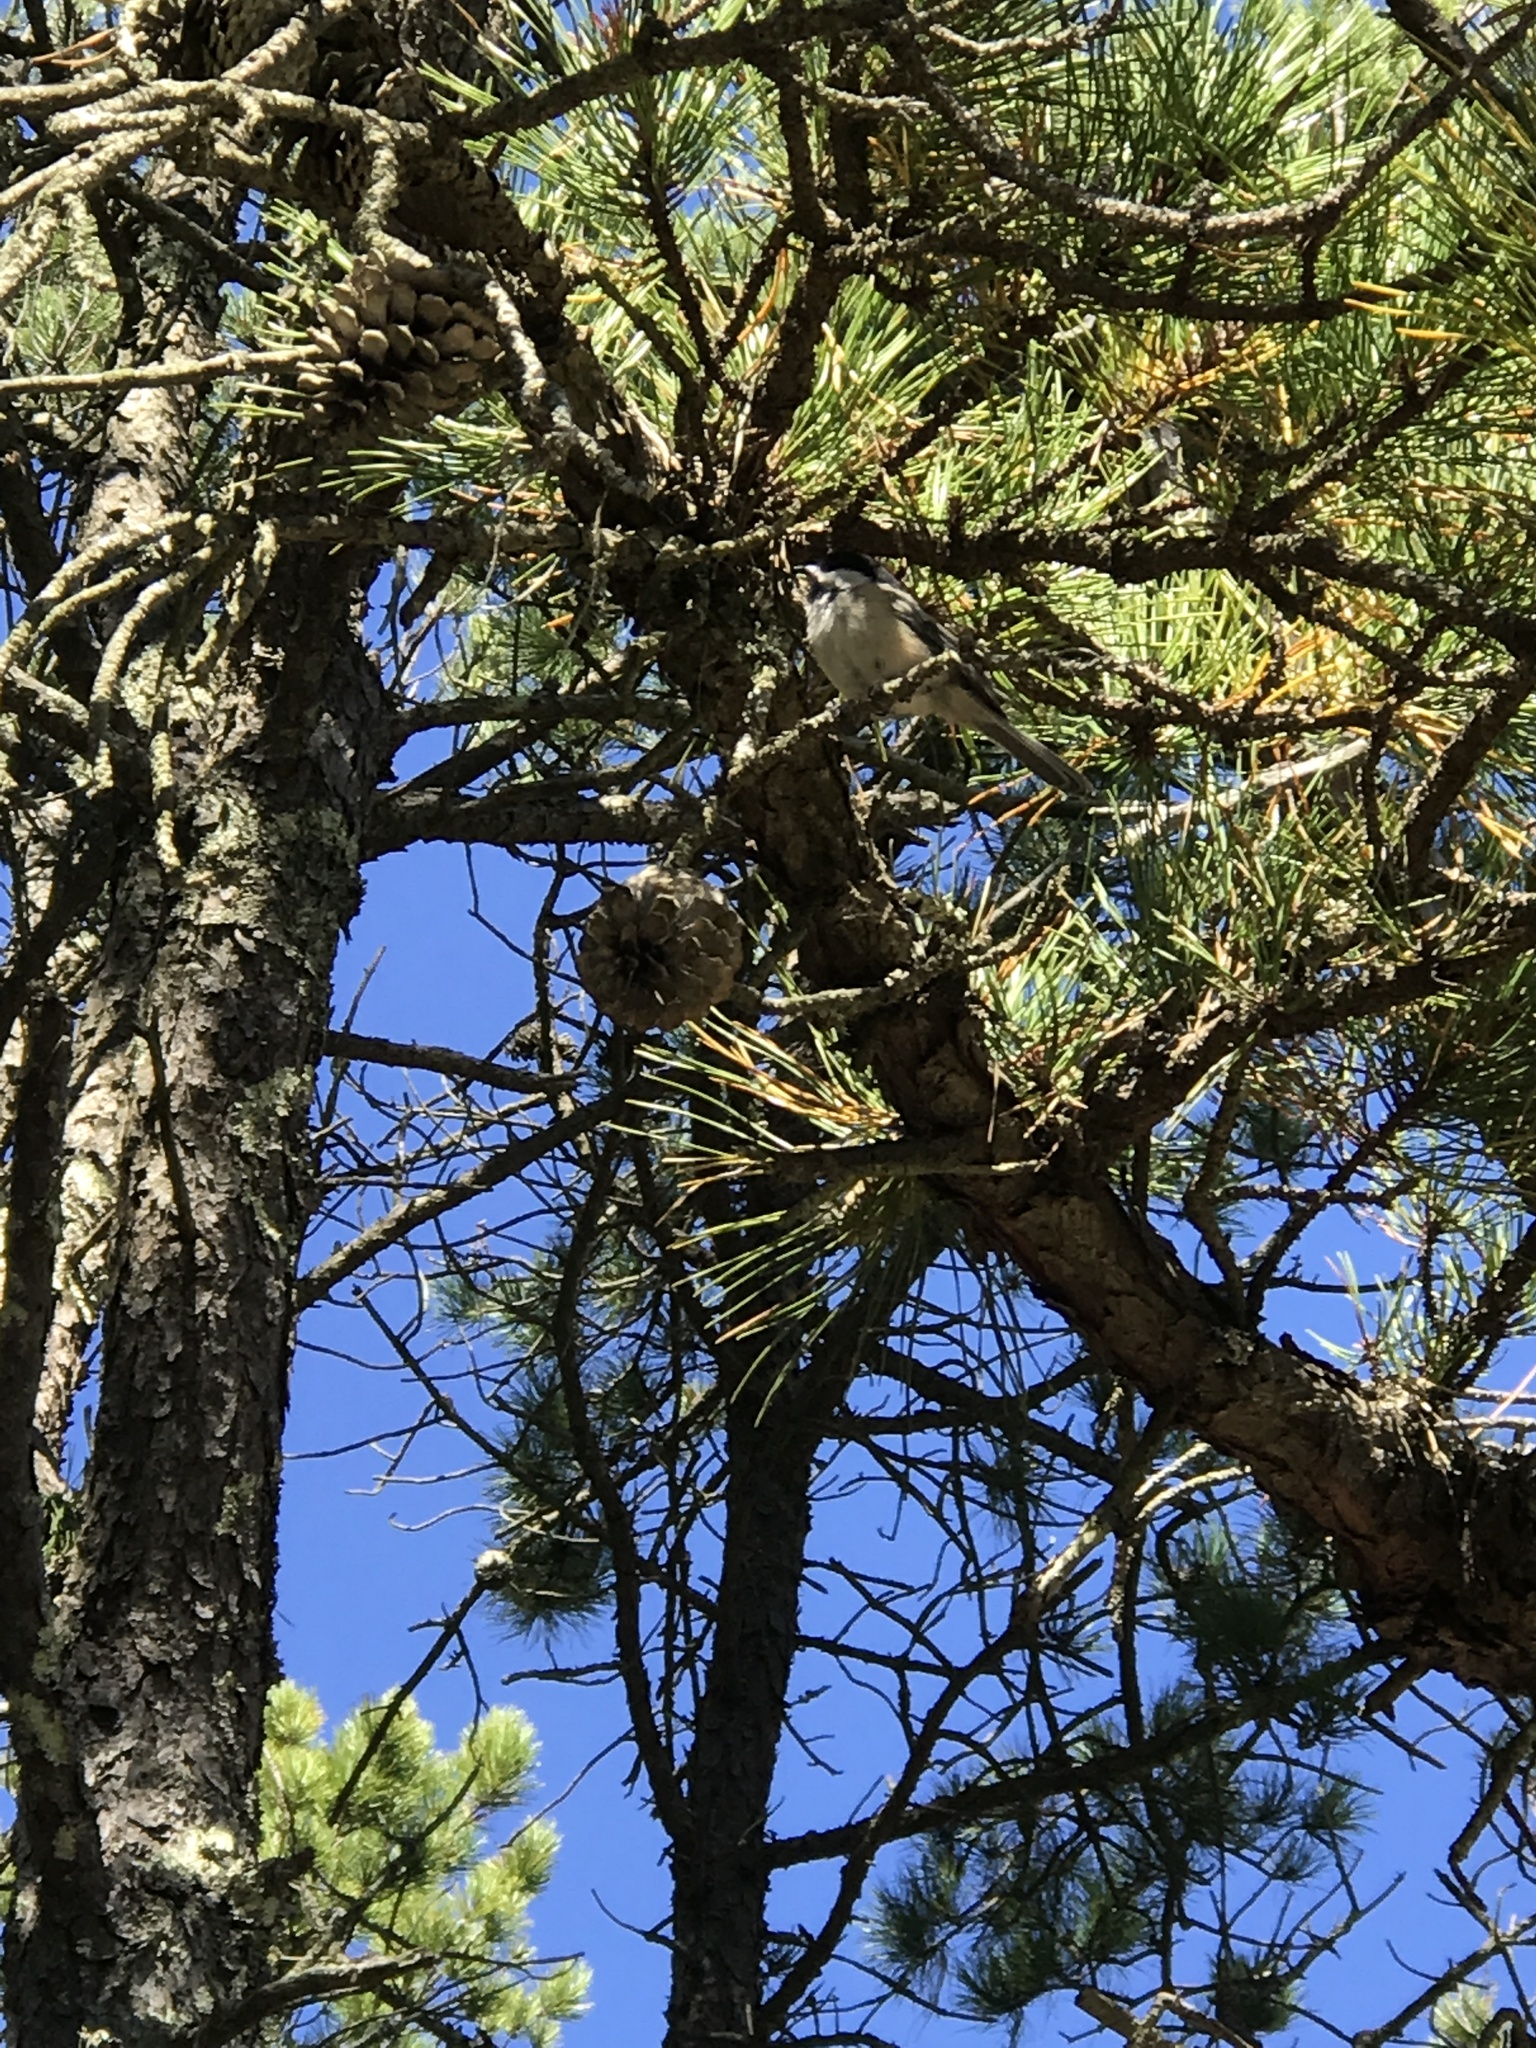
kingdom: Animalia
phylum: Chordata
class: Aves
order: Passeriformes
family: Paridae
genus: Poecile
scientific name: Poecile atricapillus
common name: Black-capped chickadee
